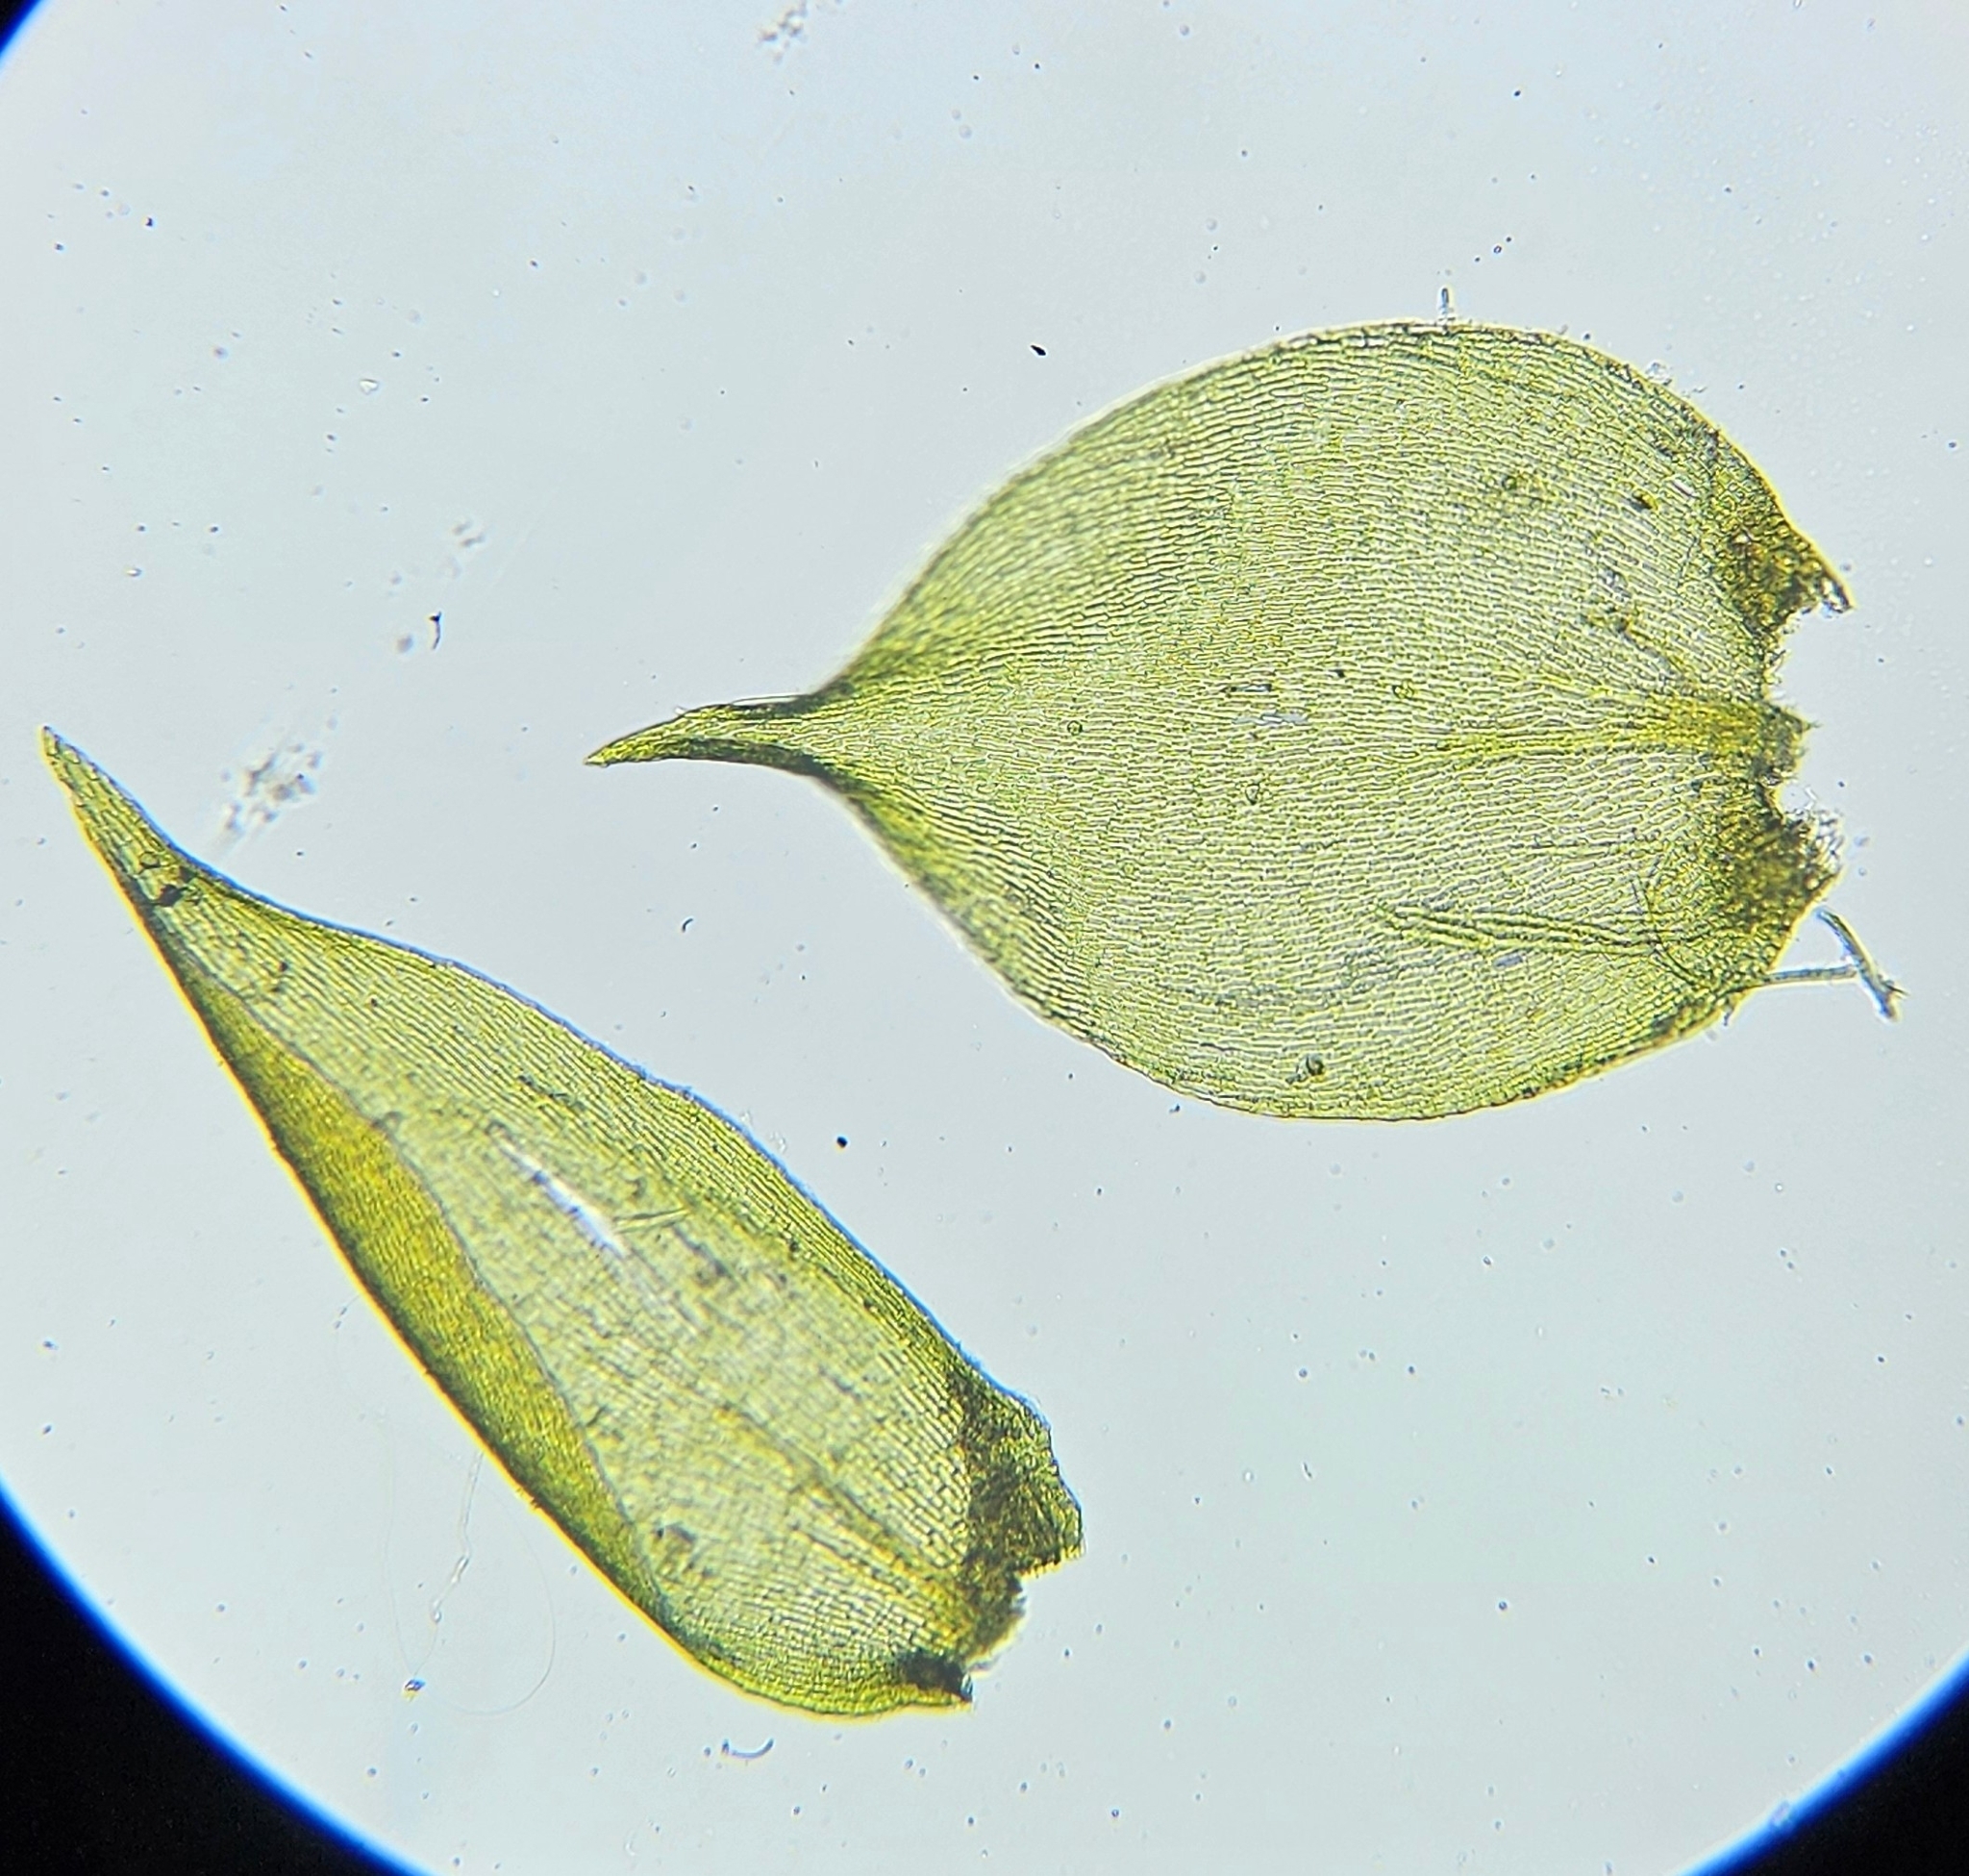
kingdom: Plantae
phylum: Bryophyta
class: Bryopsida
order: Hypnales
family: Amblystegiaceae
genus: Hygrohypnum
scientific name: Hygrohypnum luridum
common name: Drab brook moss
